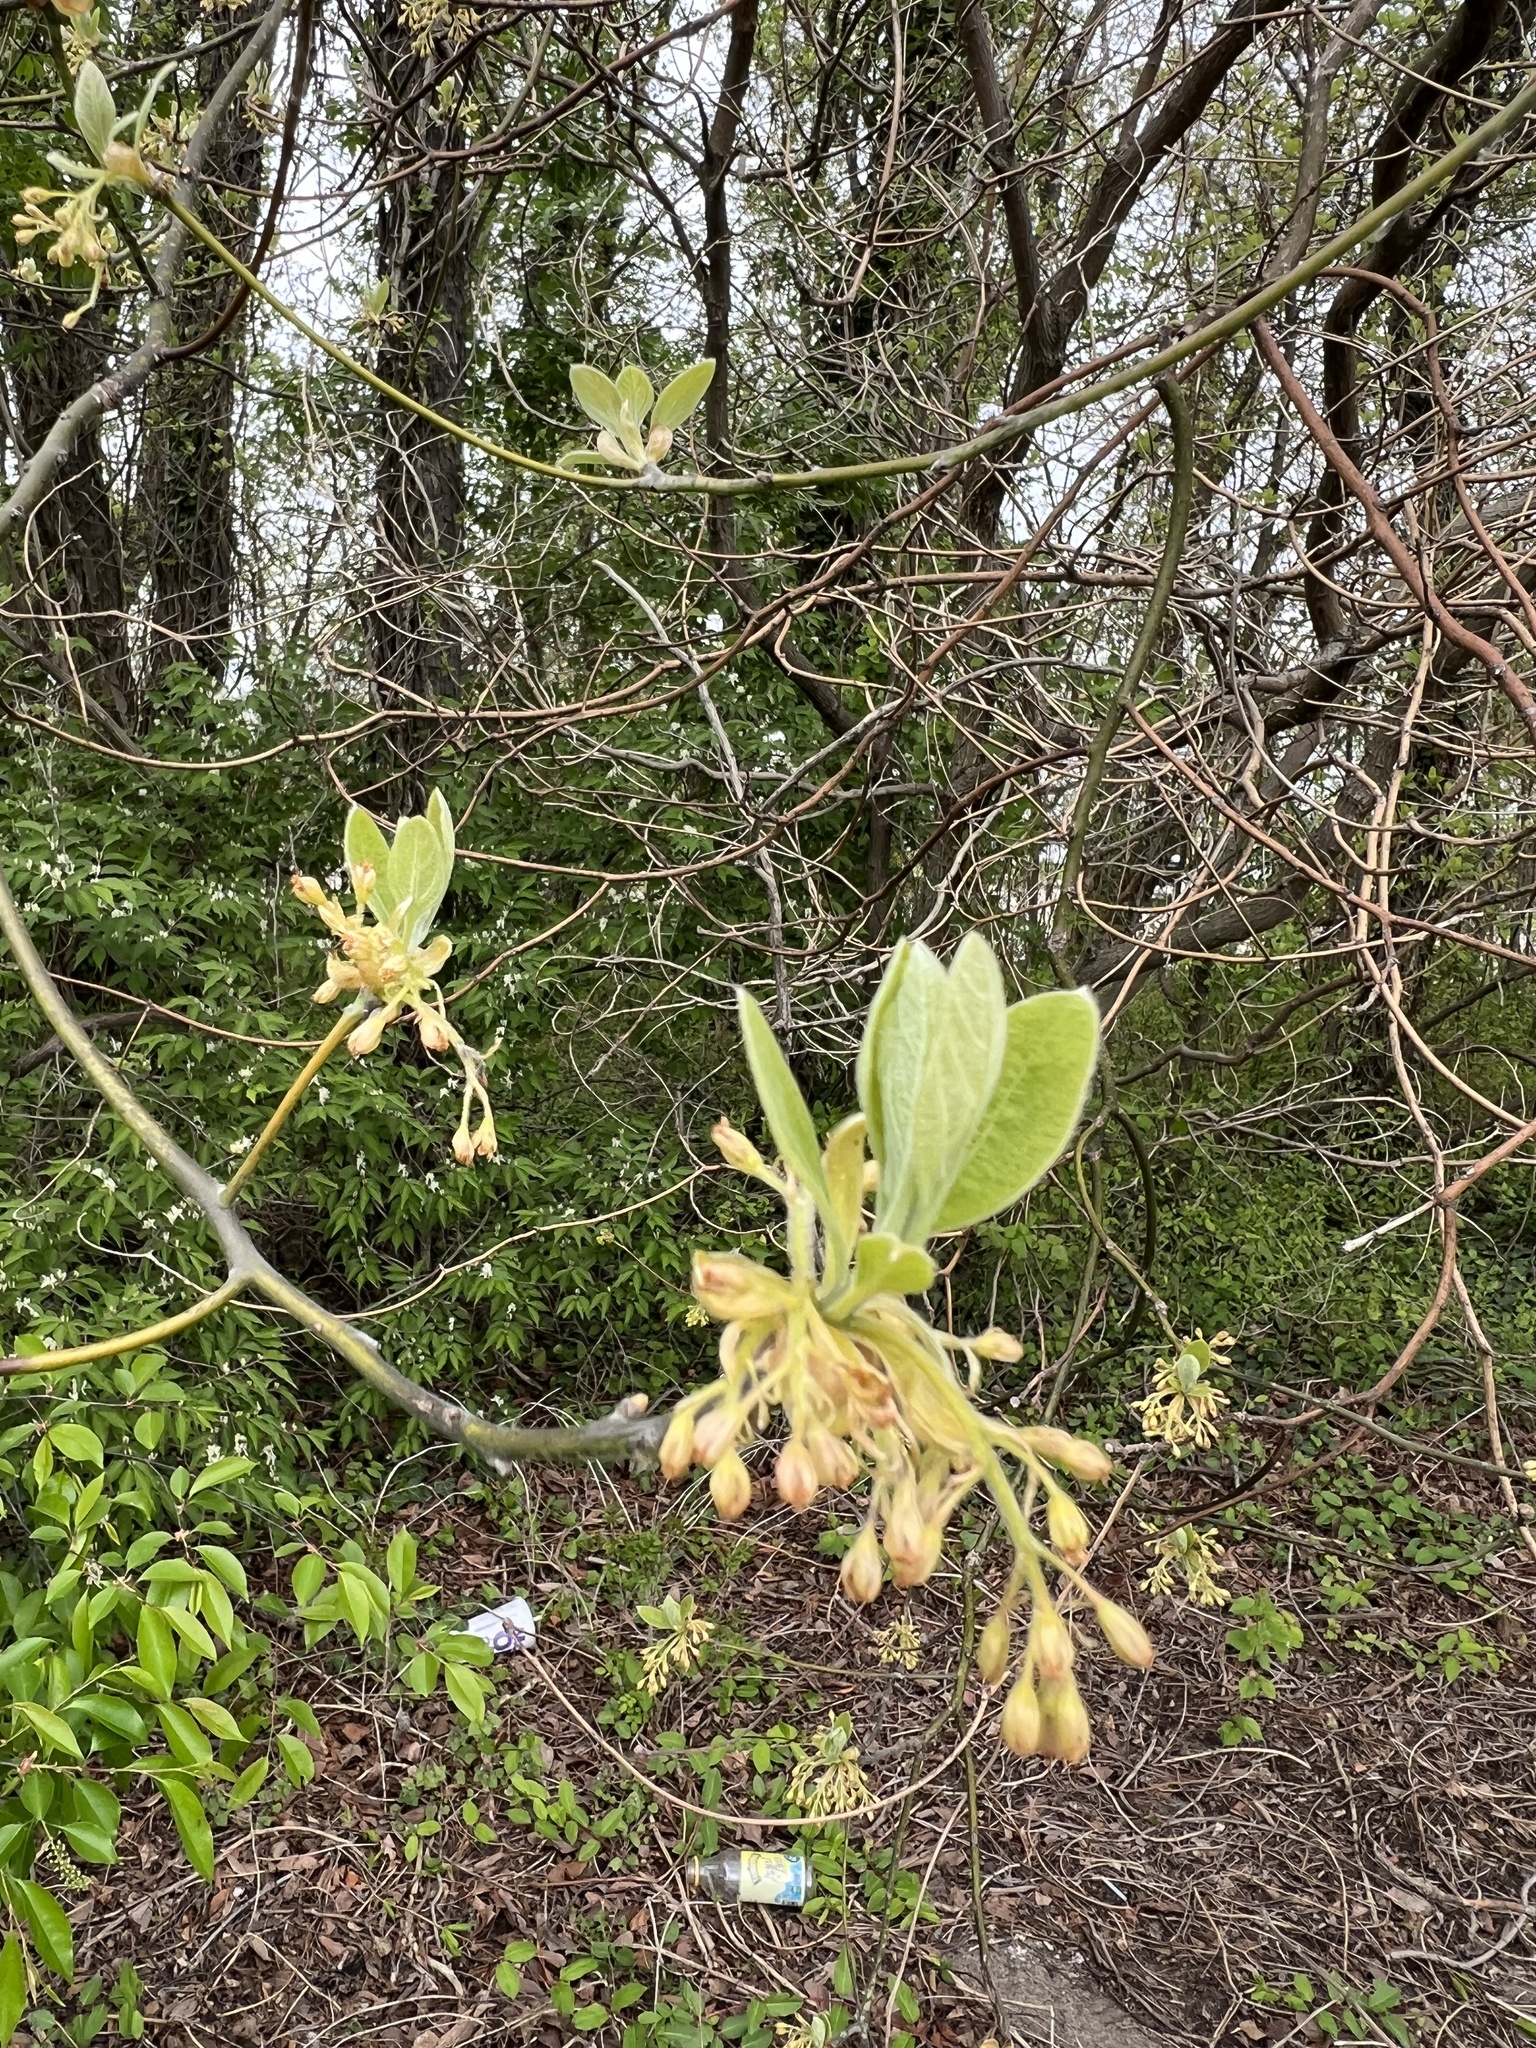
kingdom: Plantae
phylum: Tracheophyta
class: Magnoliopsida
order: Laurales
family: Lauraceae
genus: Sassafras
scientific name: Sassafras albidum
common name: Sassafras
